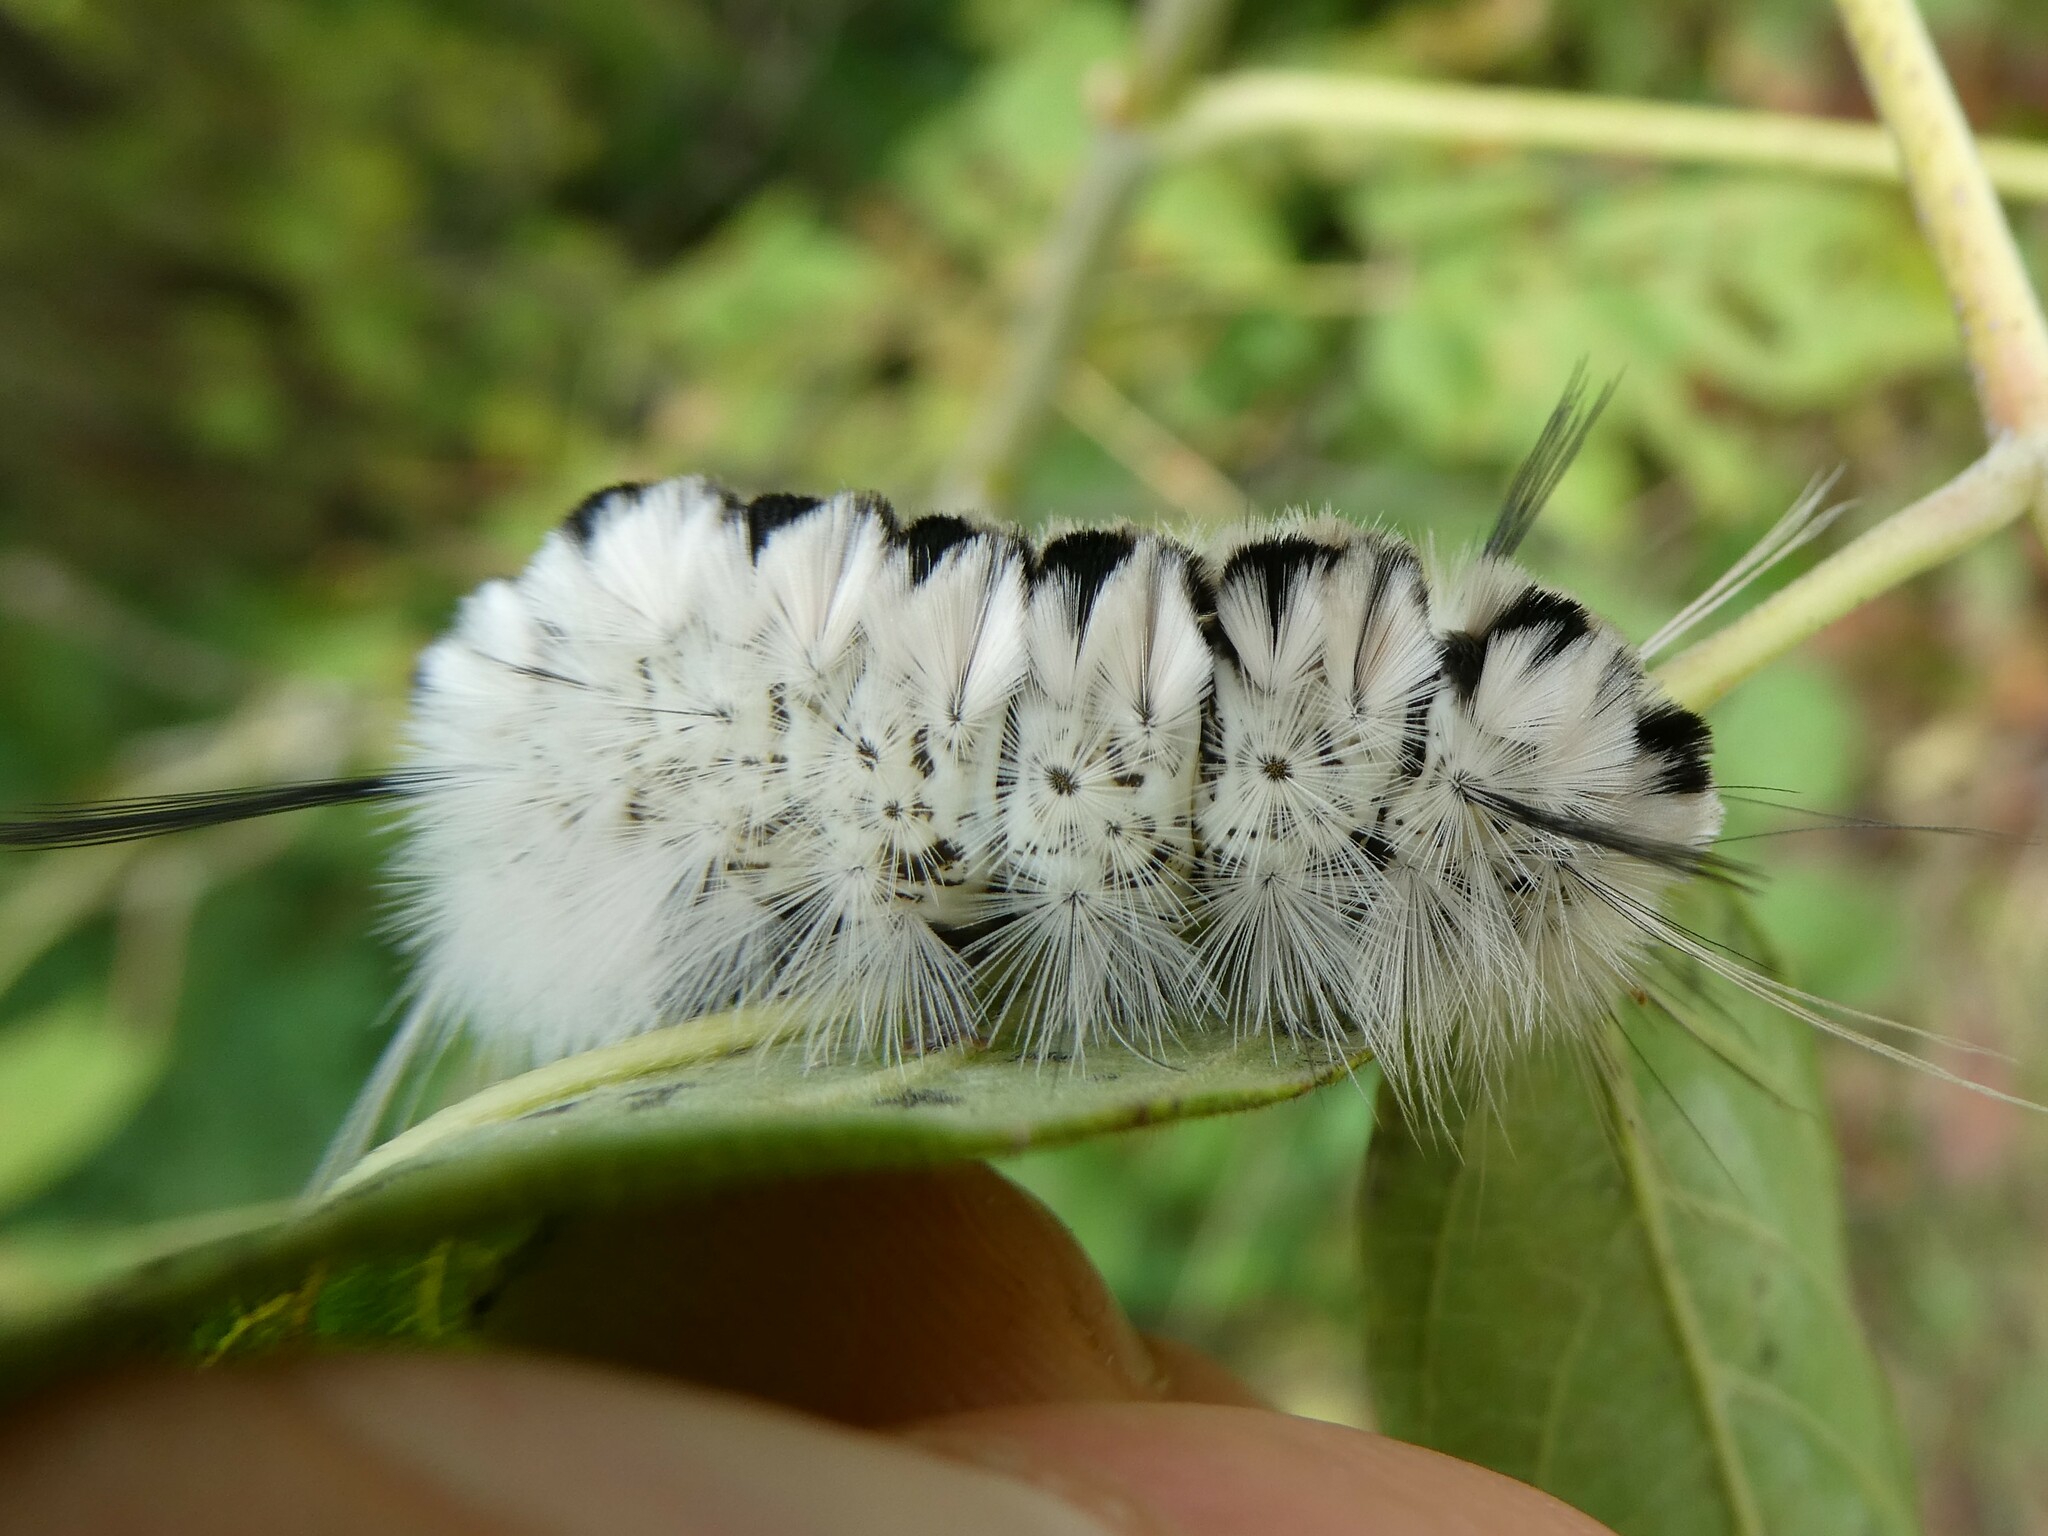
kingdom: Animalia
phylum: Arthropoda
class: Insecta
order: Lepidoptera
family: Erebidae
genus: Lophocampa
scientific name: Lophocampa caryae
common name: Hickory tussock moth
